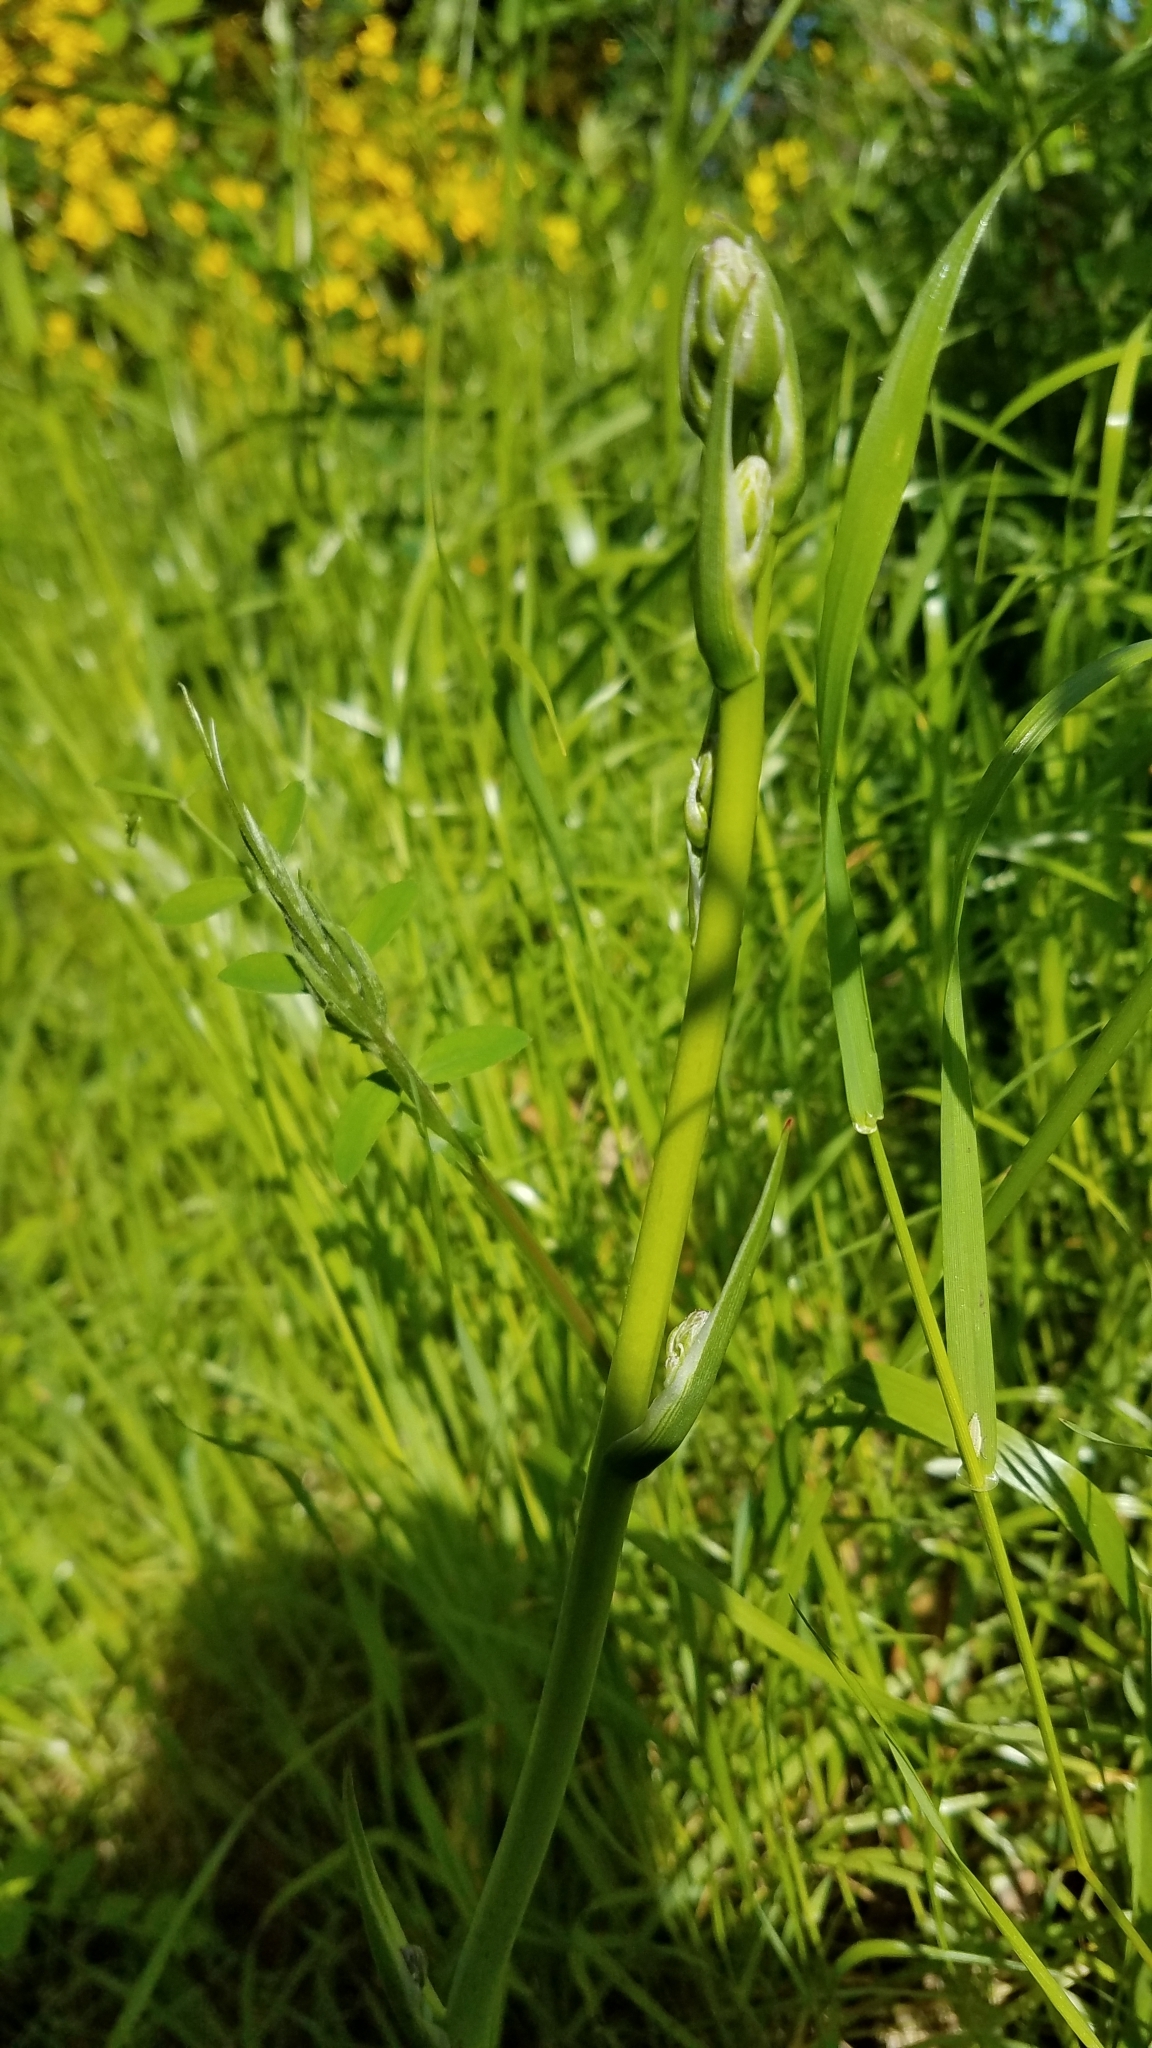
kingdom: Plantae
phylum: Tracheophyta
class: Liliopsida
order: Asparagales
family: Asparagaceae
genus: Chlorogalum
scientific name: Chlorogalum pomeridianum
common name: Amole
